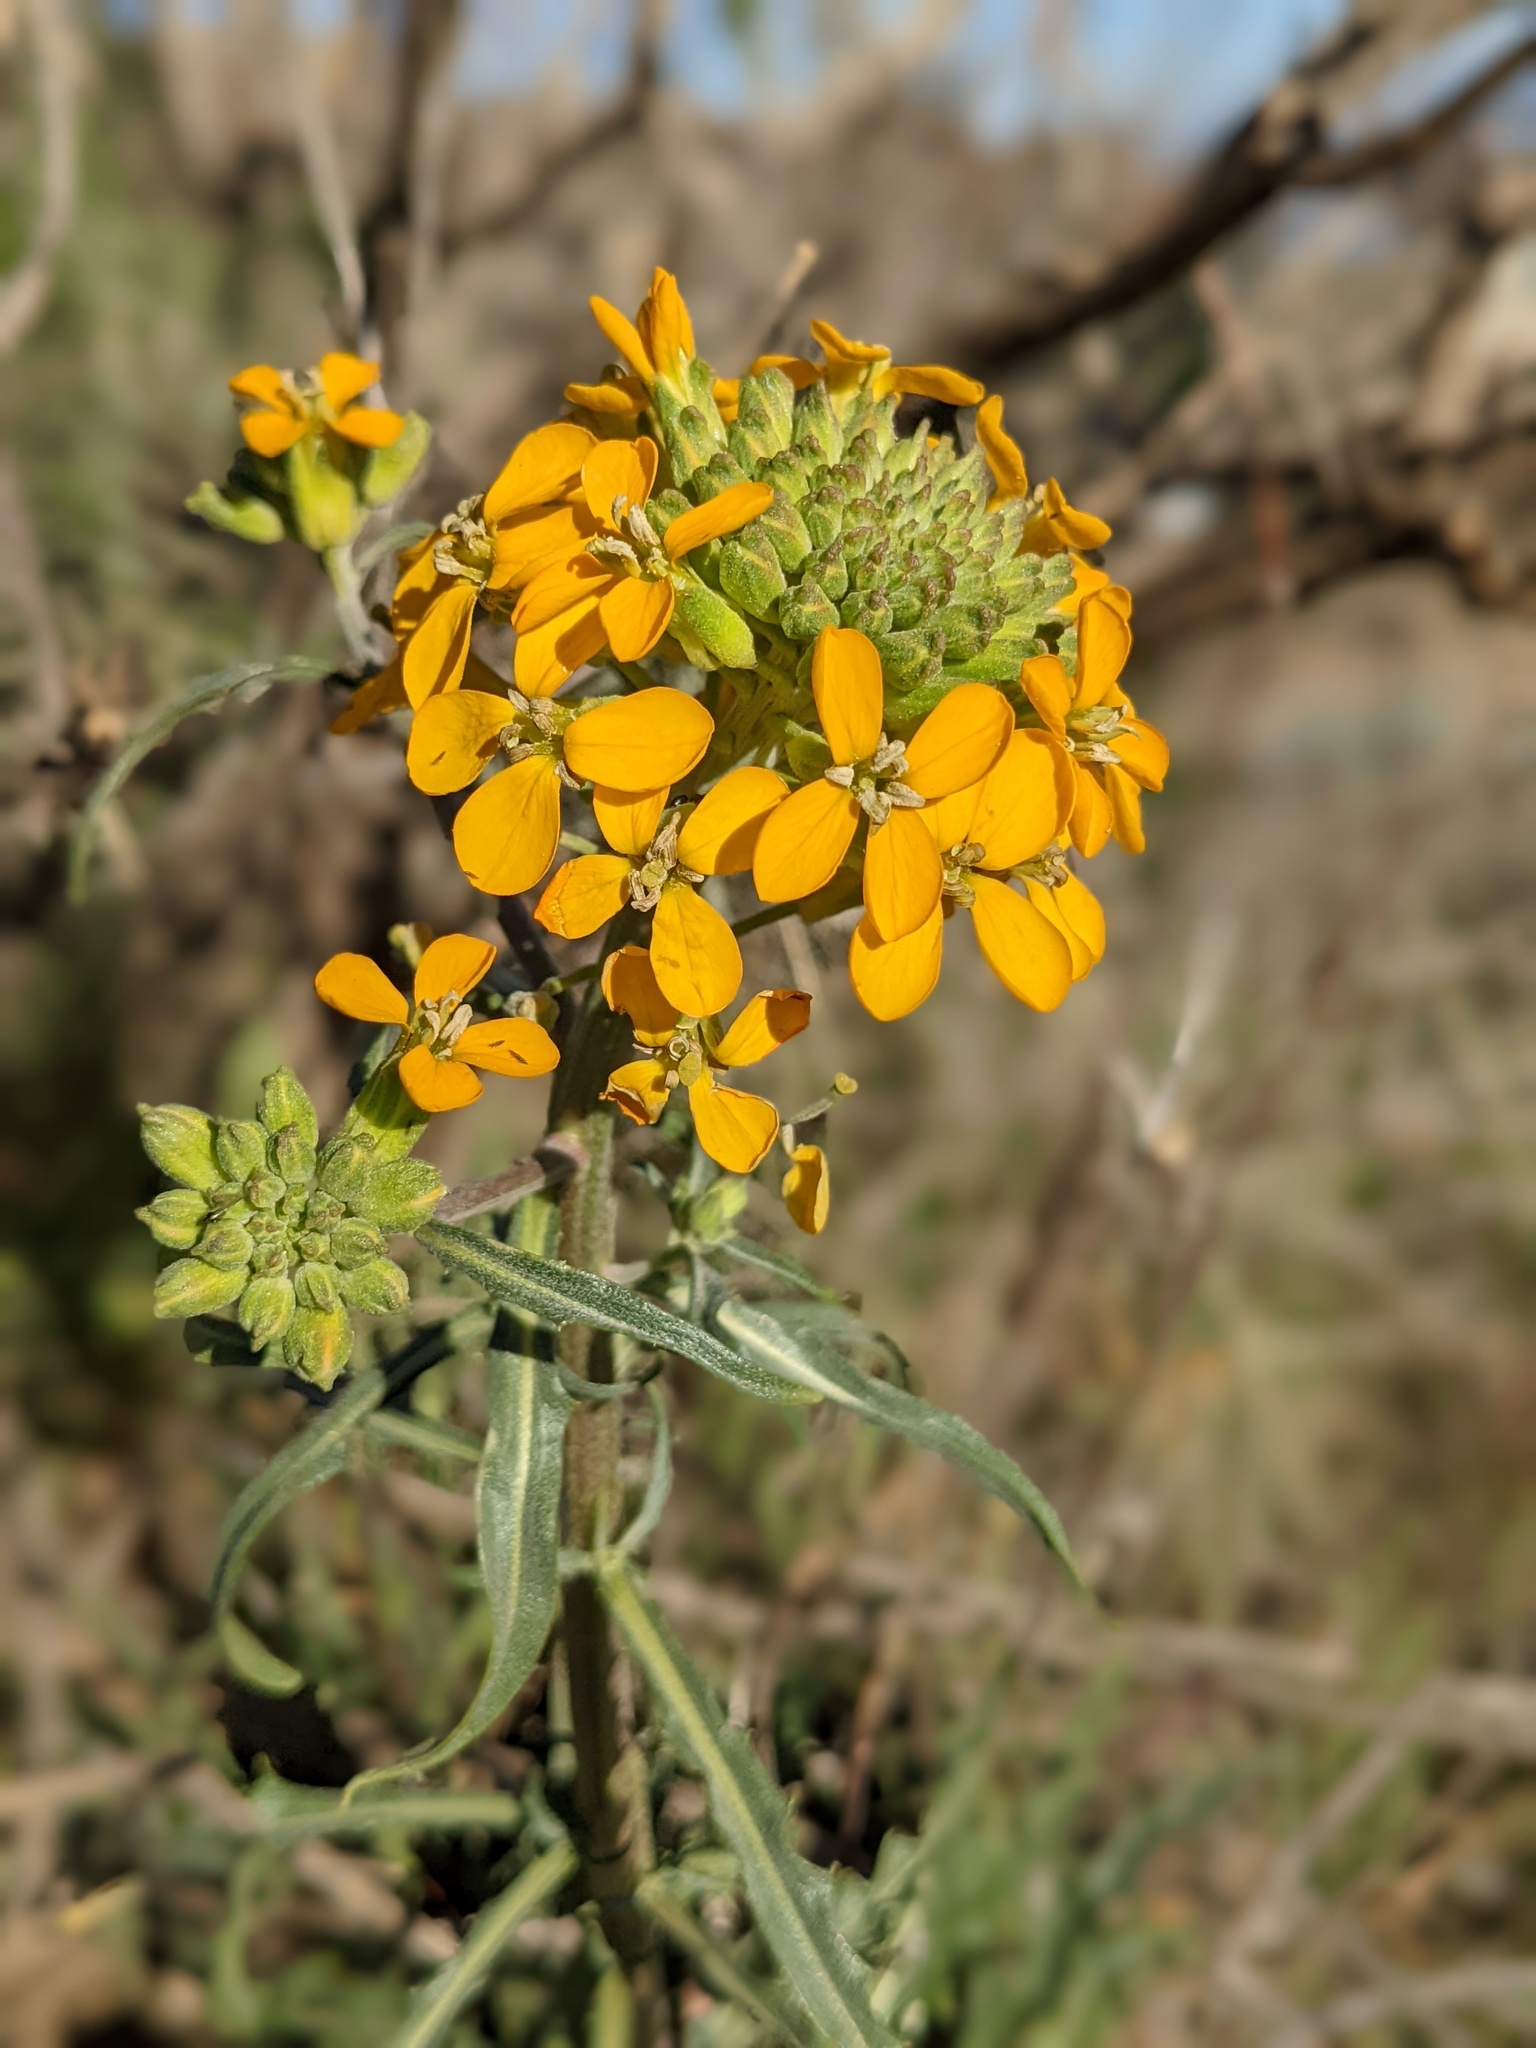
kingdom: Plantae
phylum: Tracheophyta
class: Magnoliopsida
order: Brassicales
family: Brassicaceae
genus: Erysimum
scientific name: Erysimum capitatum
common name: Western wallflower
